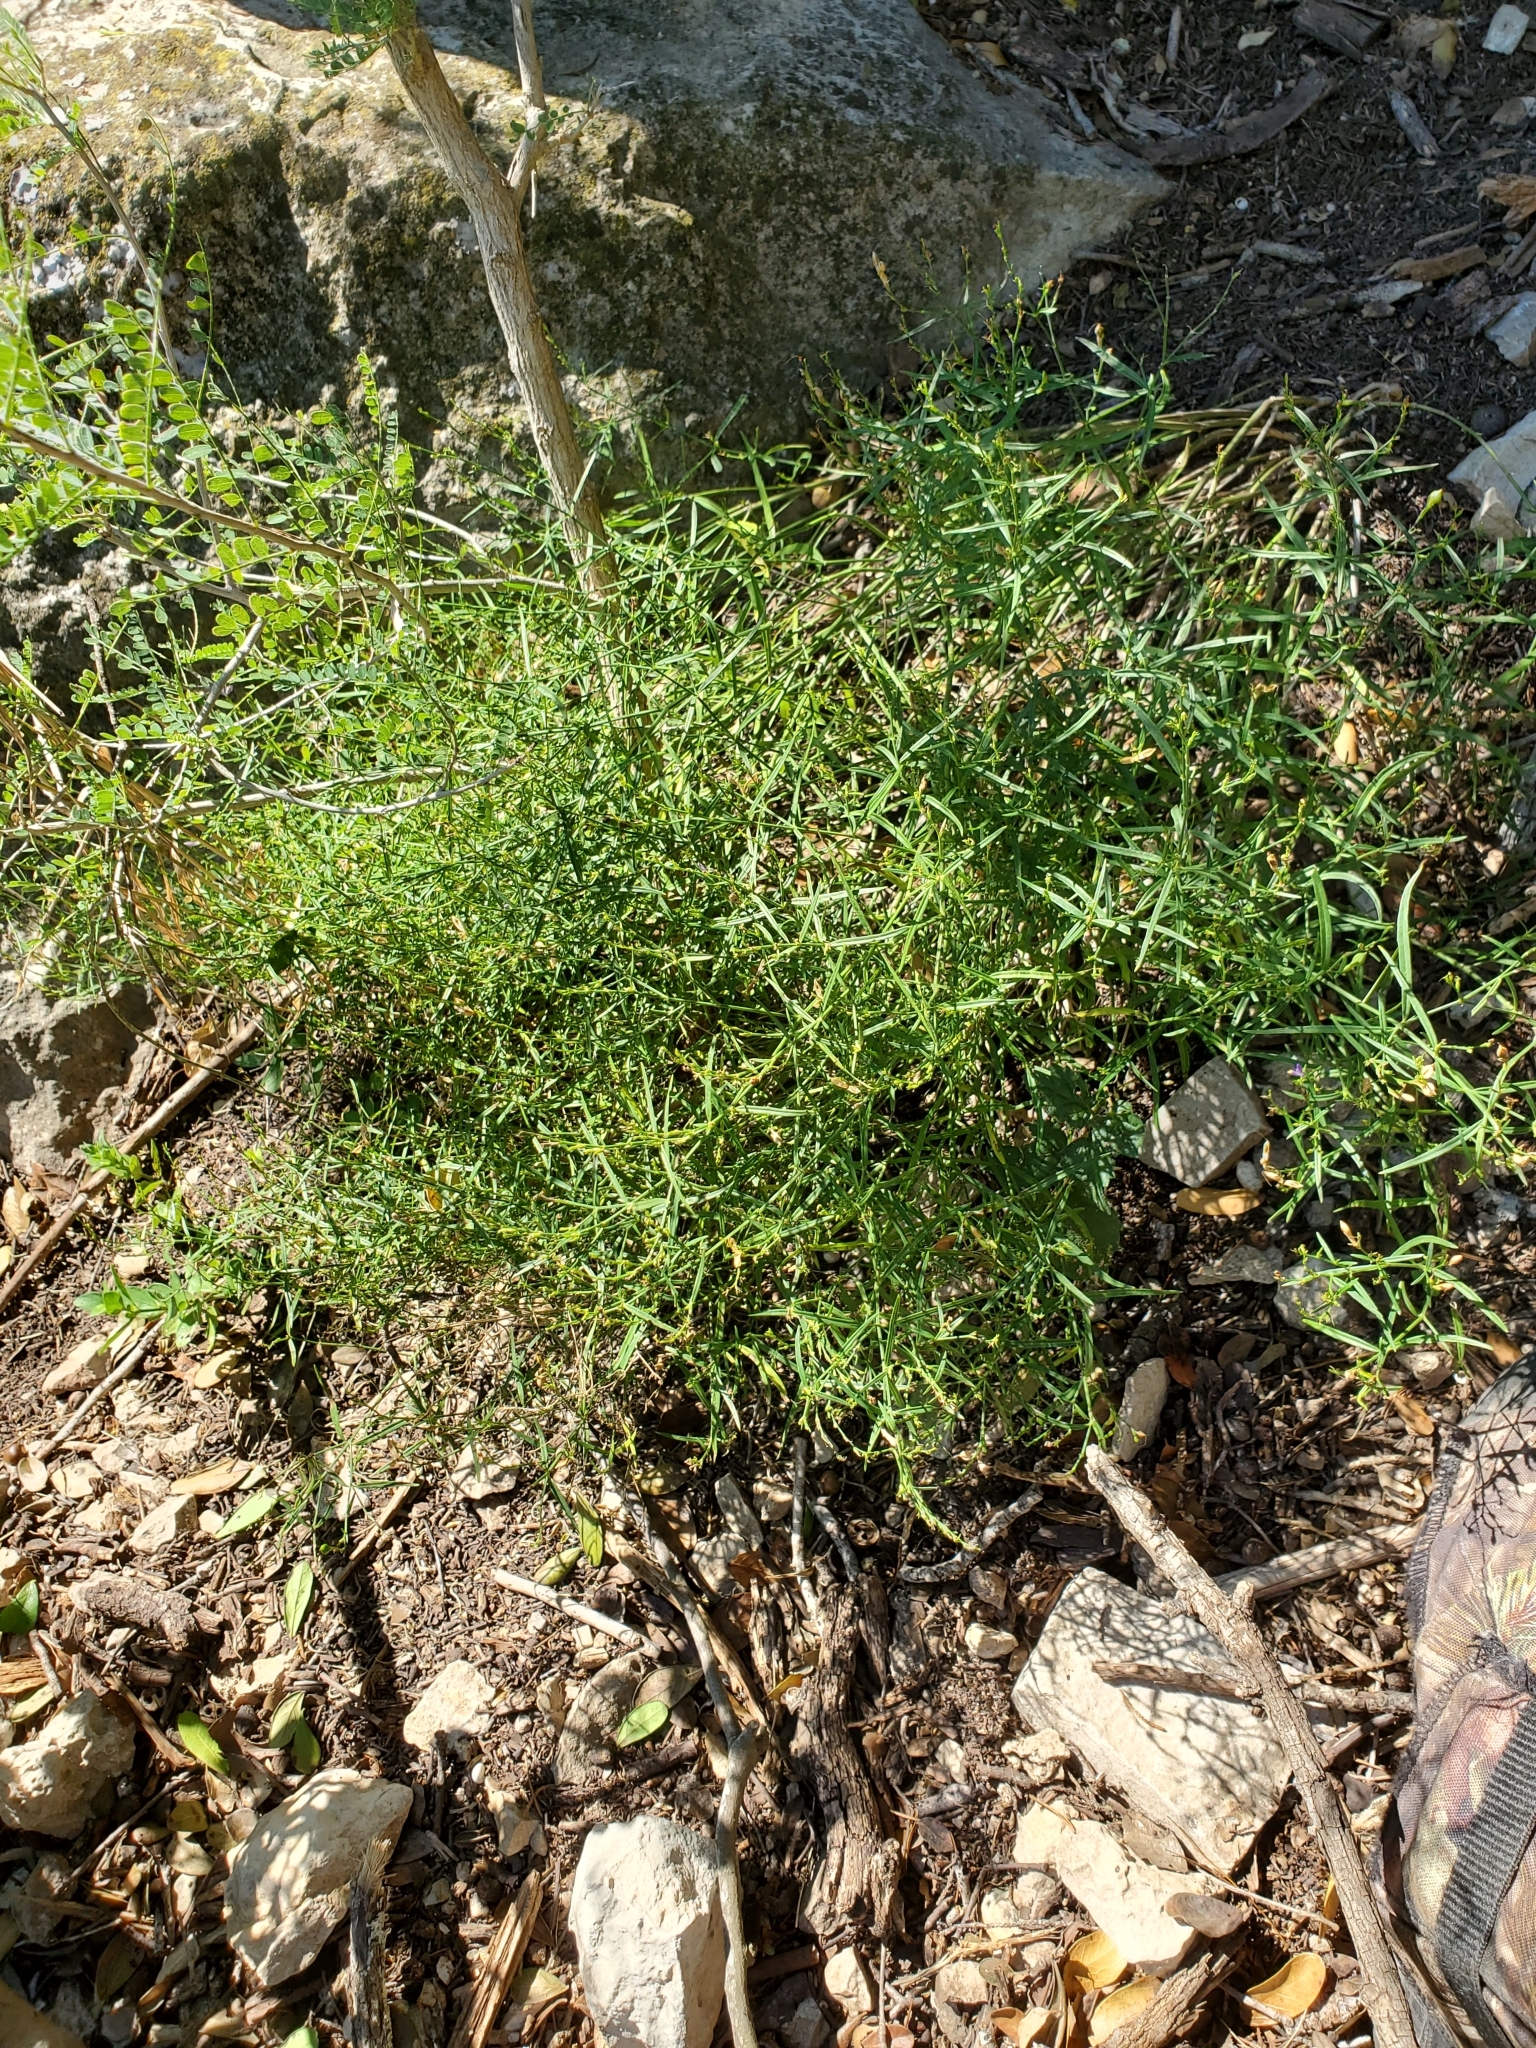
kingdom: Plantae
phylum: Tracheophyta
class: Magnoliopsida
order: Lamiales
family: Acanthaceae
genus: Carlowrightia
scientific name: Carlowrightia linearifolia
